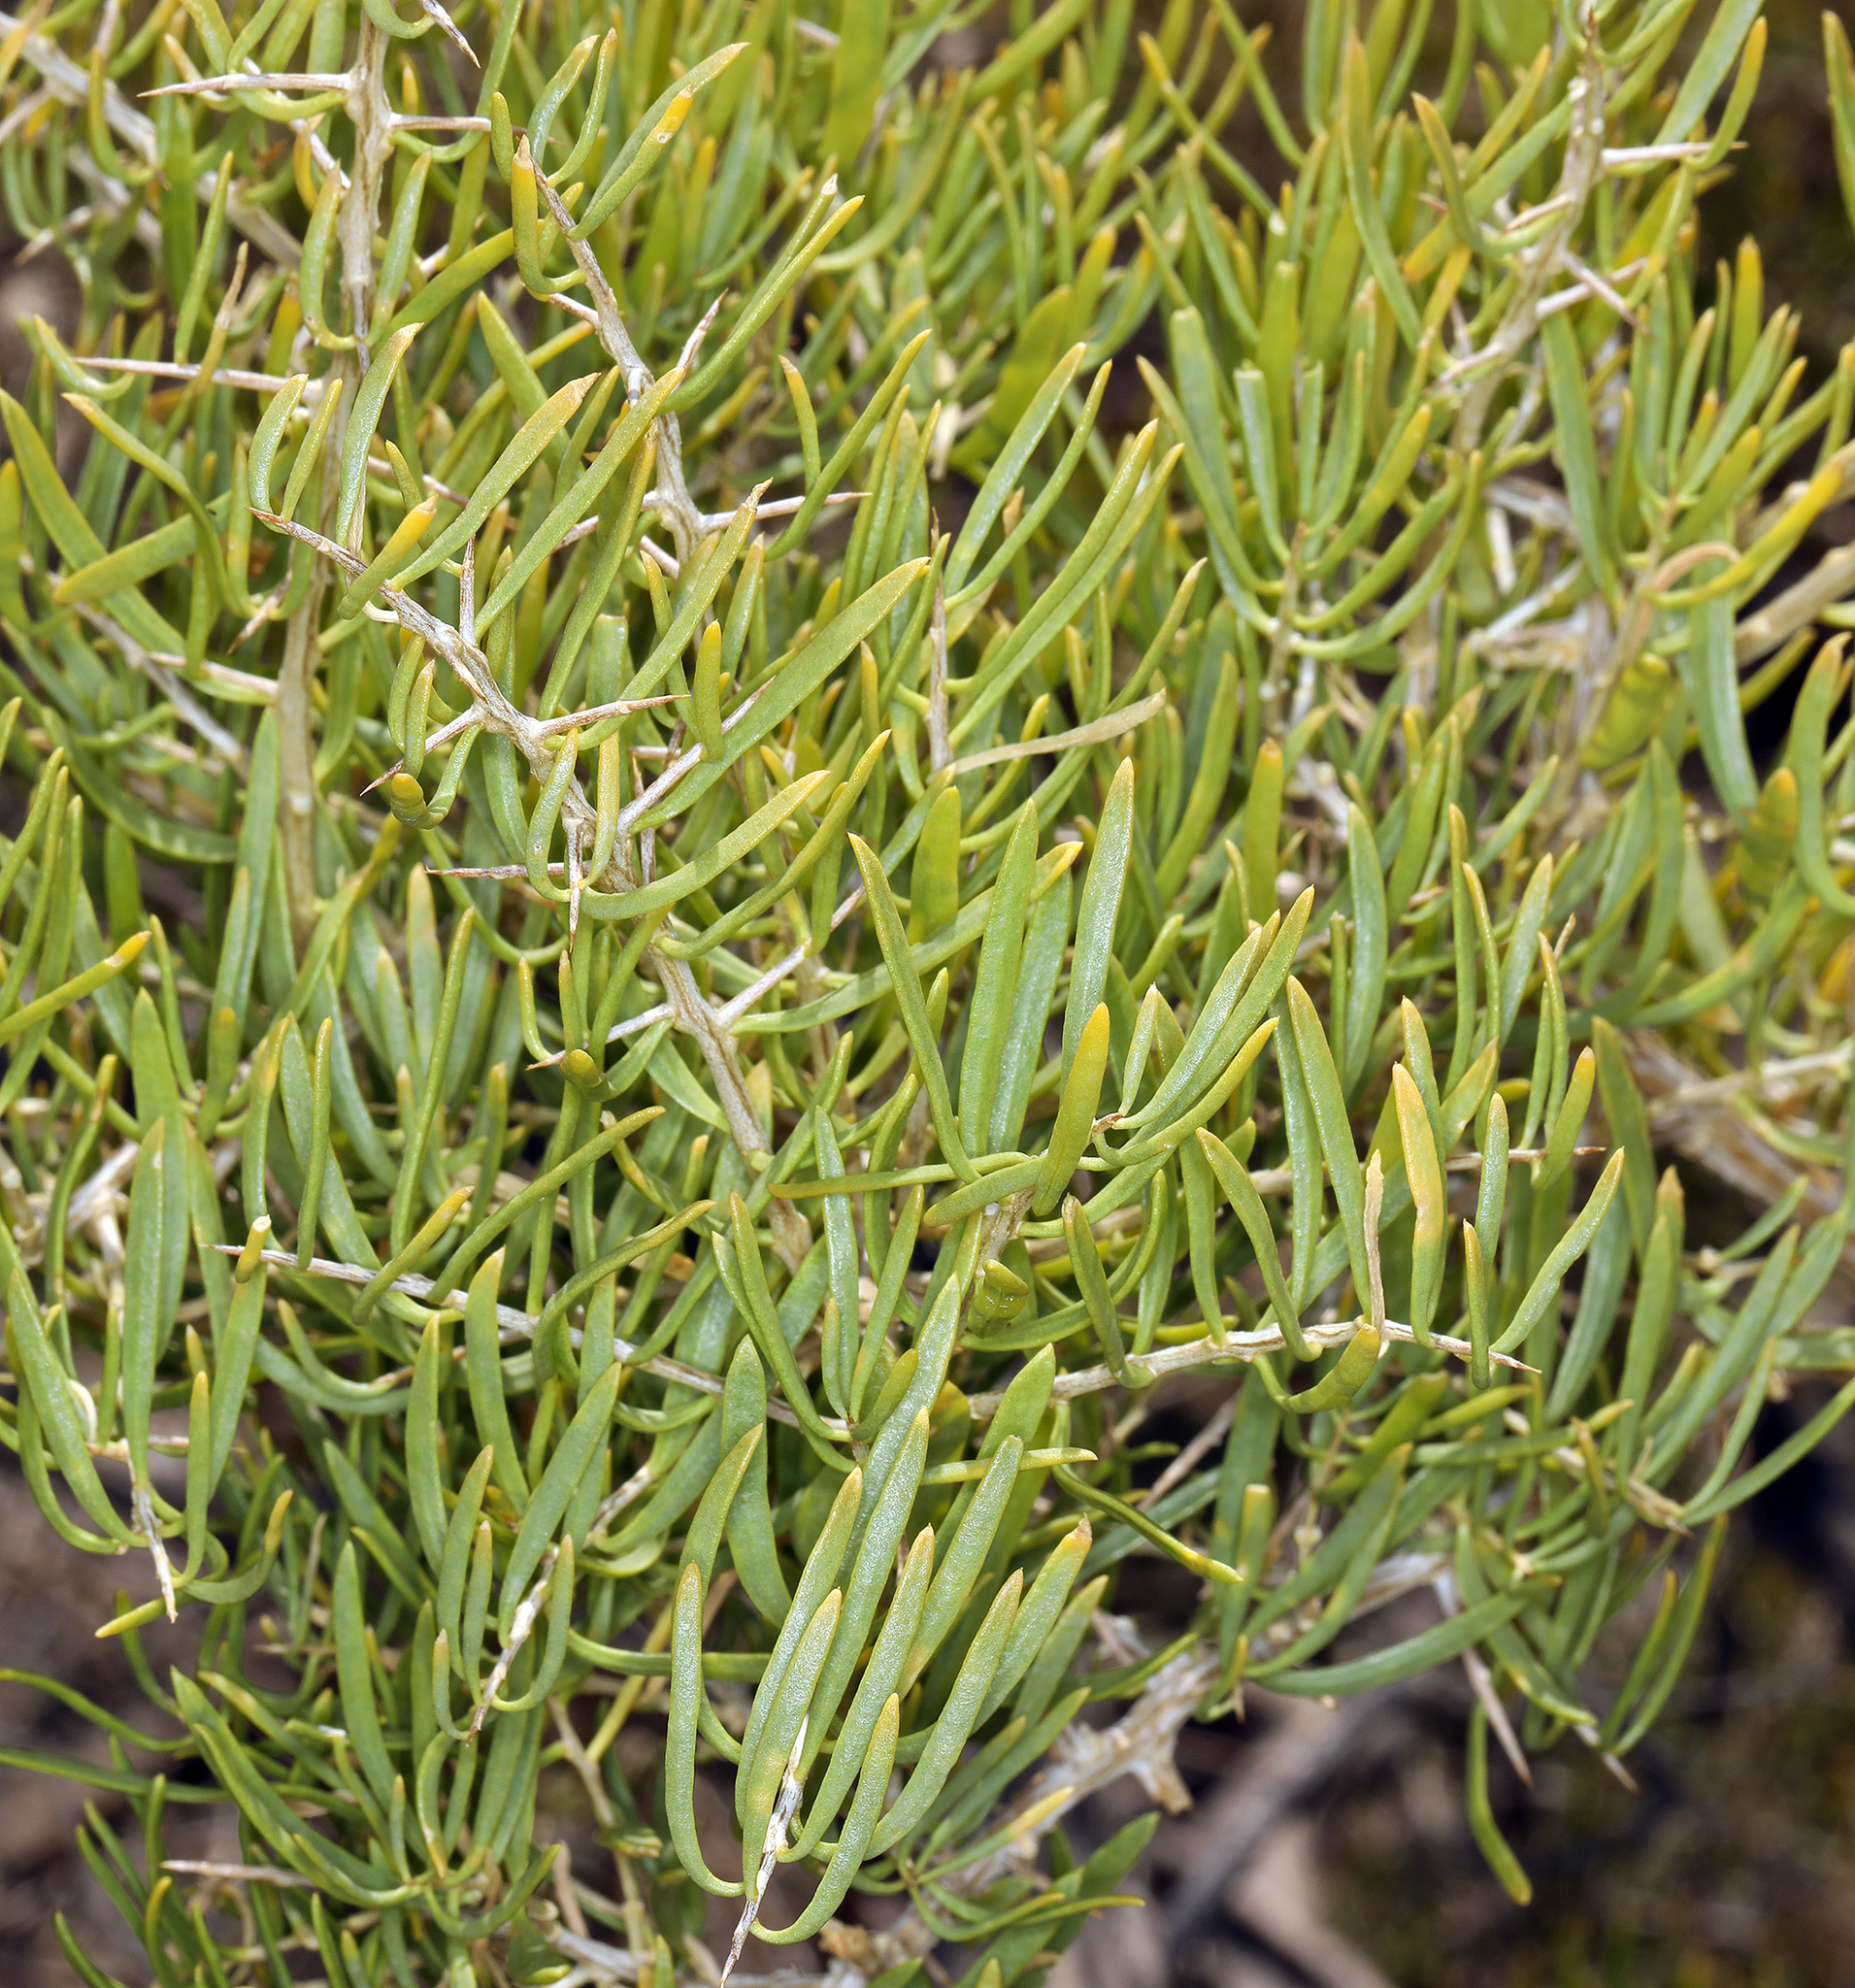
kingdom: Plantae
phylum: Tracheophyta
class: Magnoliopsida
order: Caryophyllales
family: Sarcobataceae
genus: Sarcobatus
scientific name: Sarcobatus vermiculatus
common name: Greasewood
